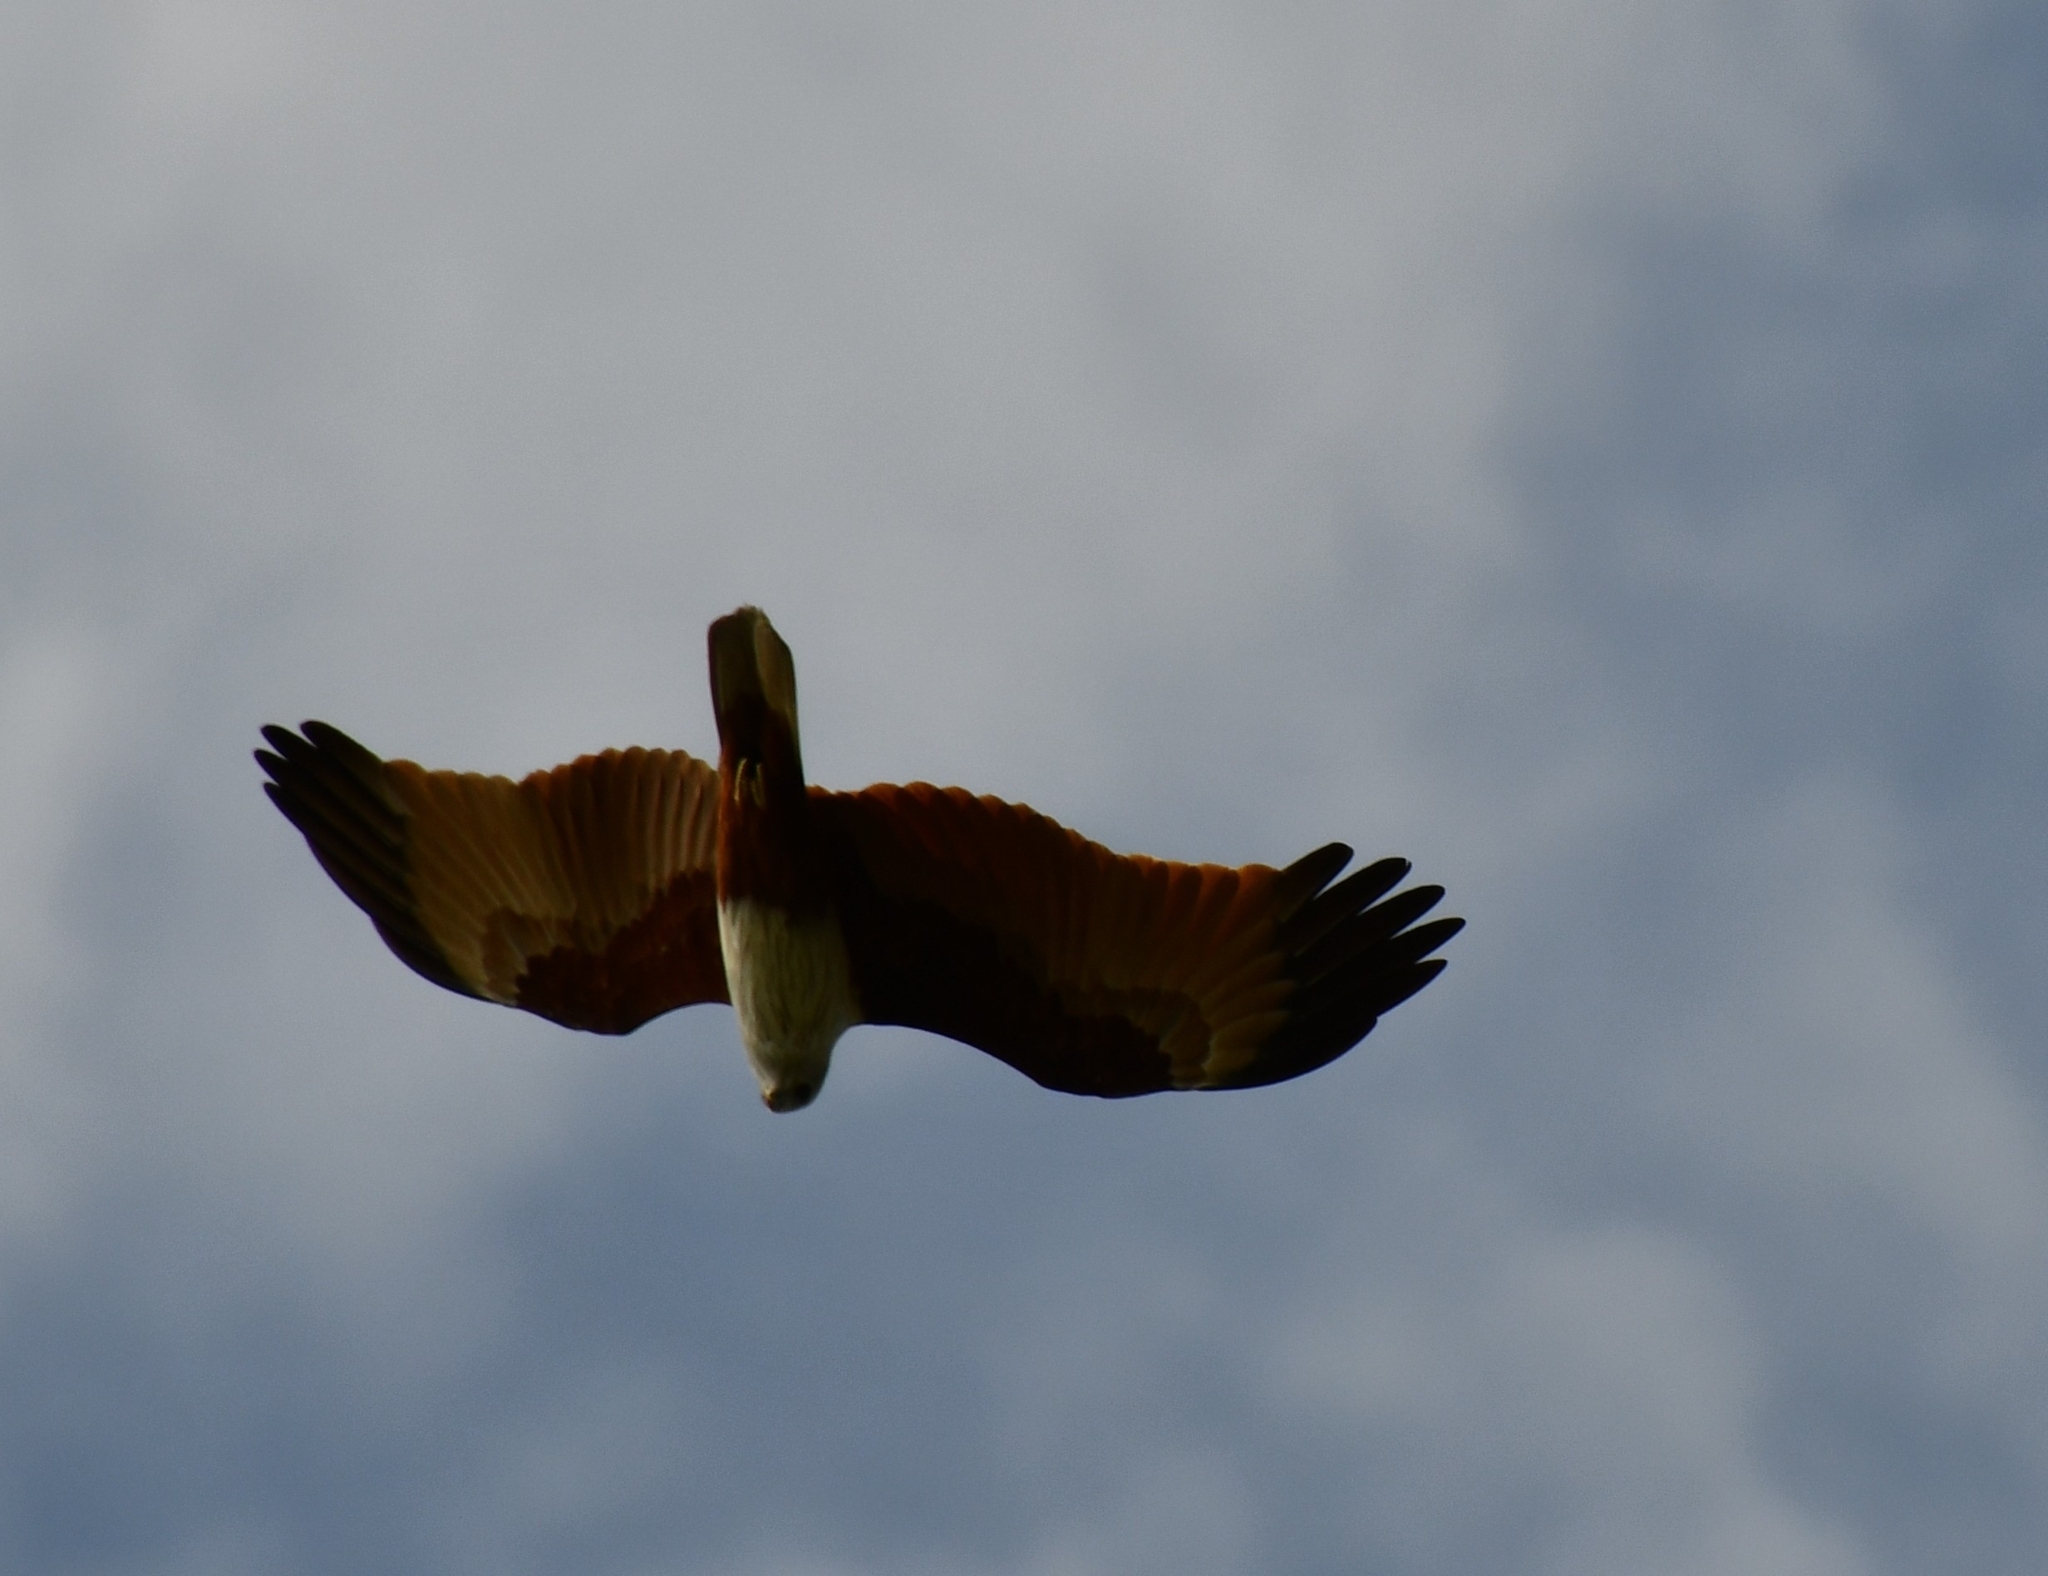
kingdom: Animalia
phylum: Chordata
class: Aves
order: Accipitriformes
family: Accipitridae
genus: Haliastur
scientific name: Haliastur indus
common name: Brahminy kite
